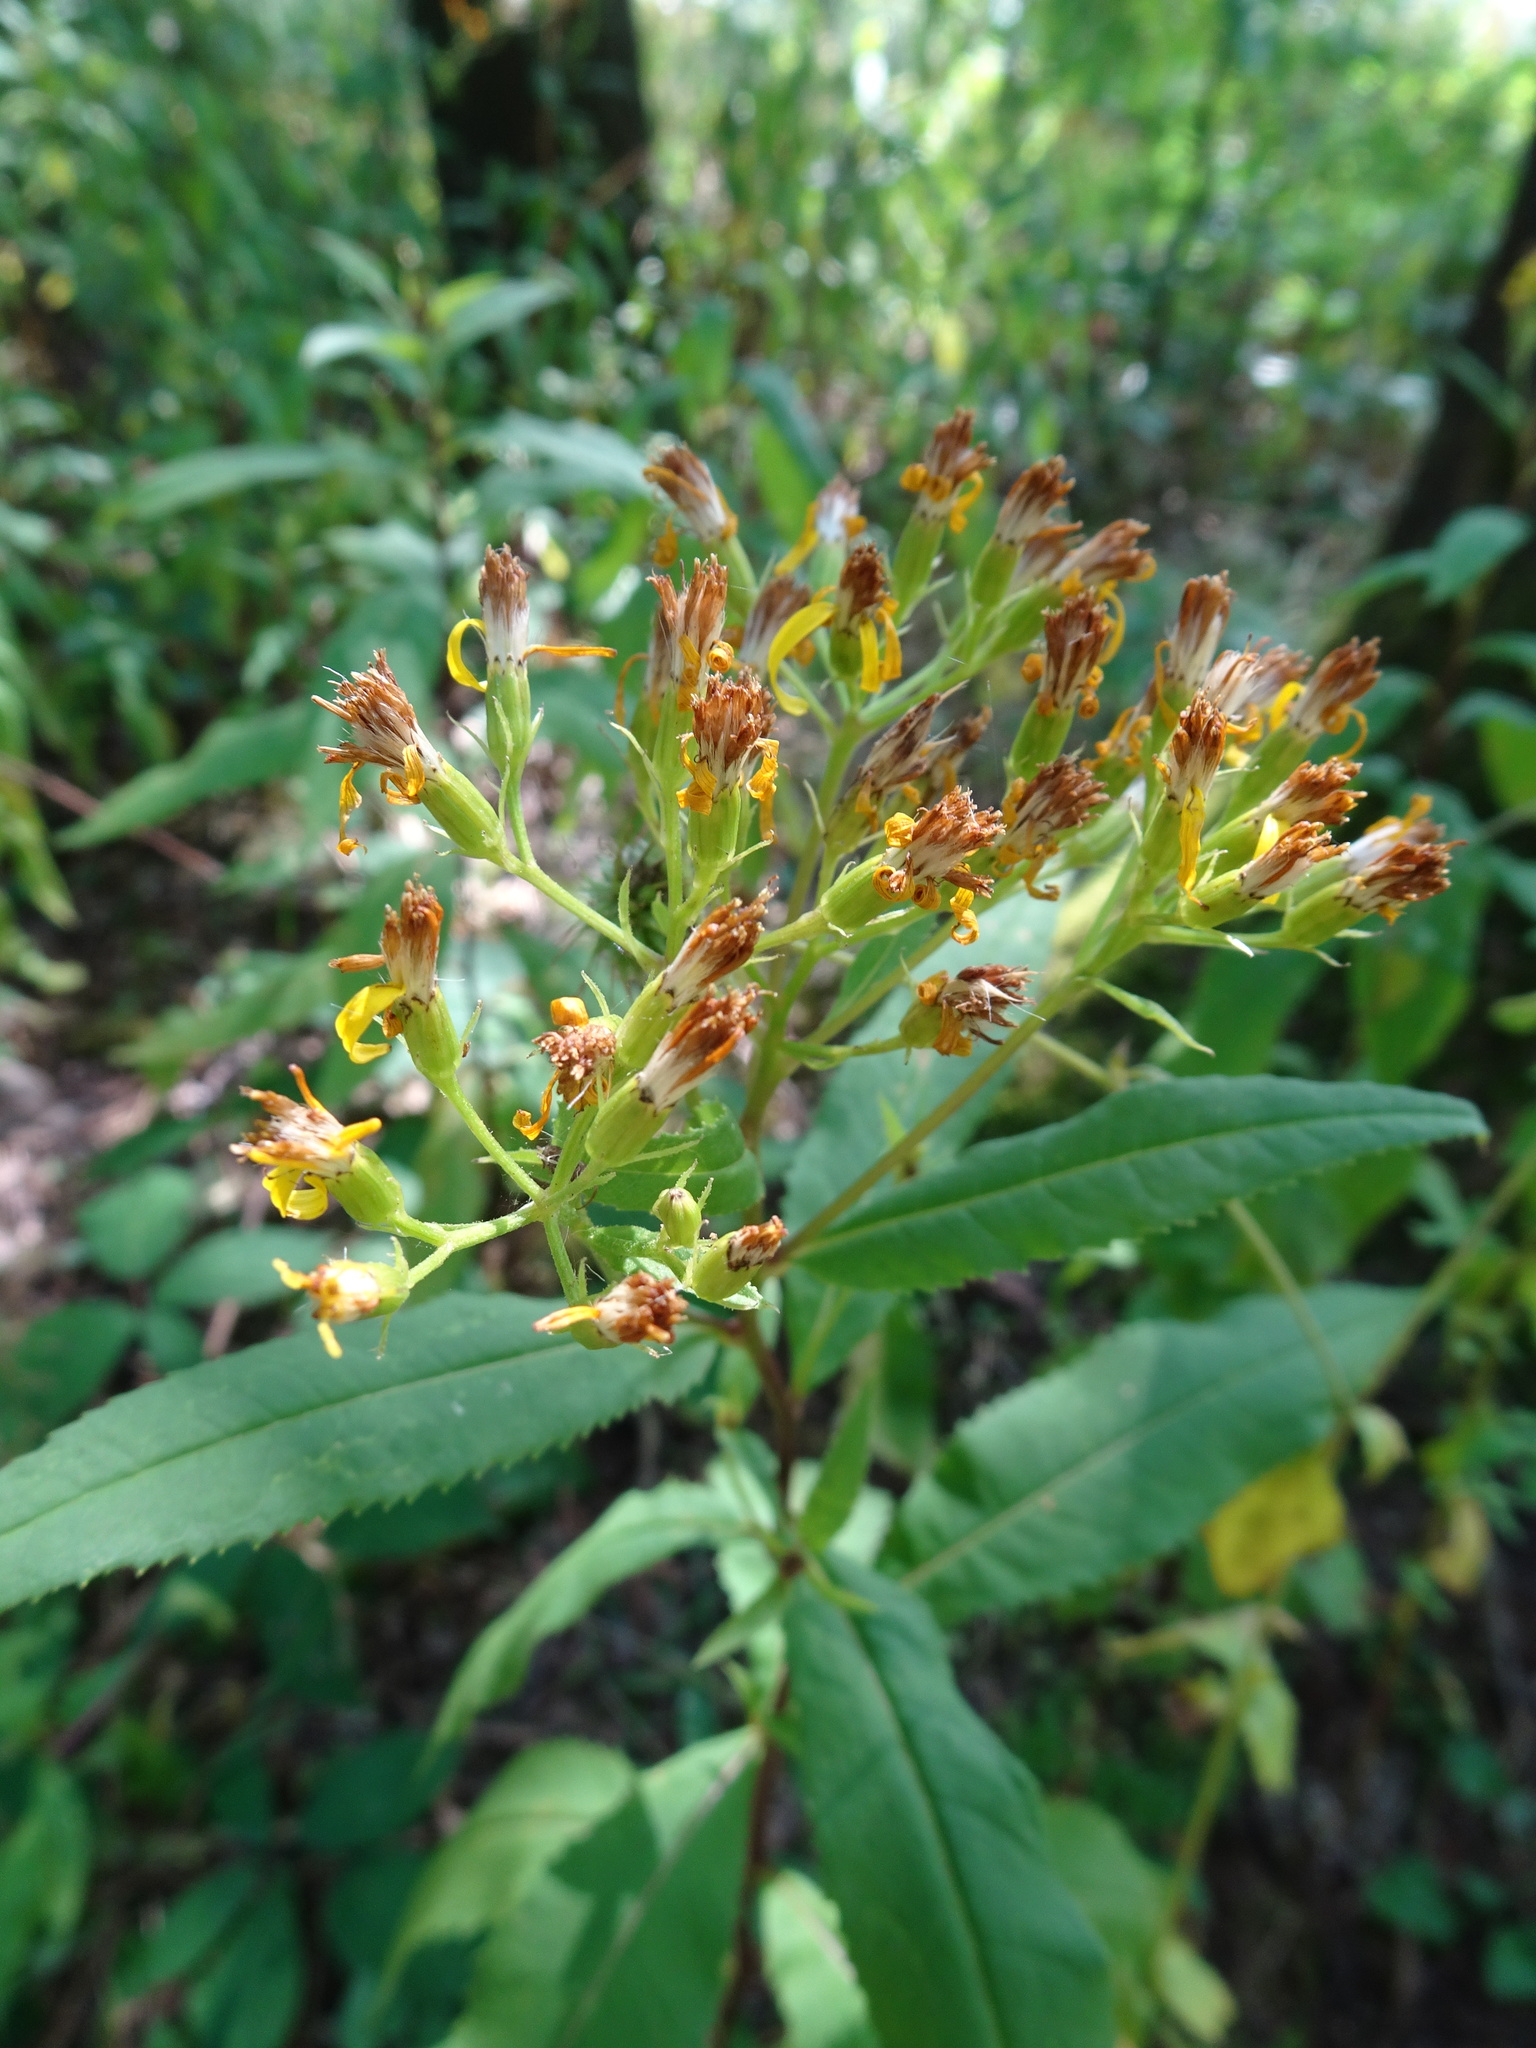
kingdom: Plantae
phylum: Tracheophyta
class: Magnoliopsida
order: Asterales
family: Asteraceae
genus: Senecio
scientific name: Senecio ovatus
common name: Wood ragwort
